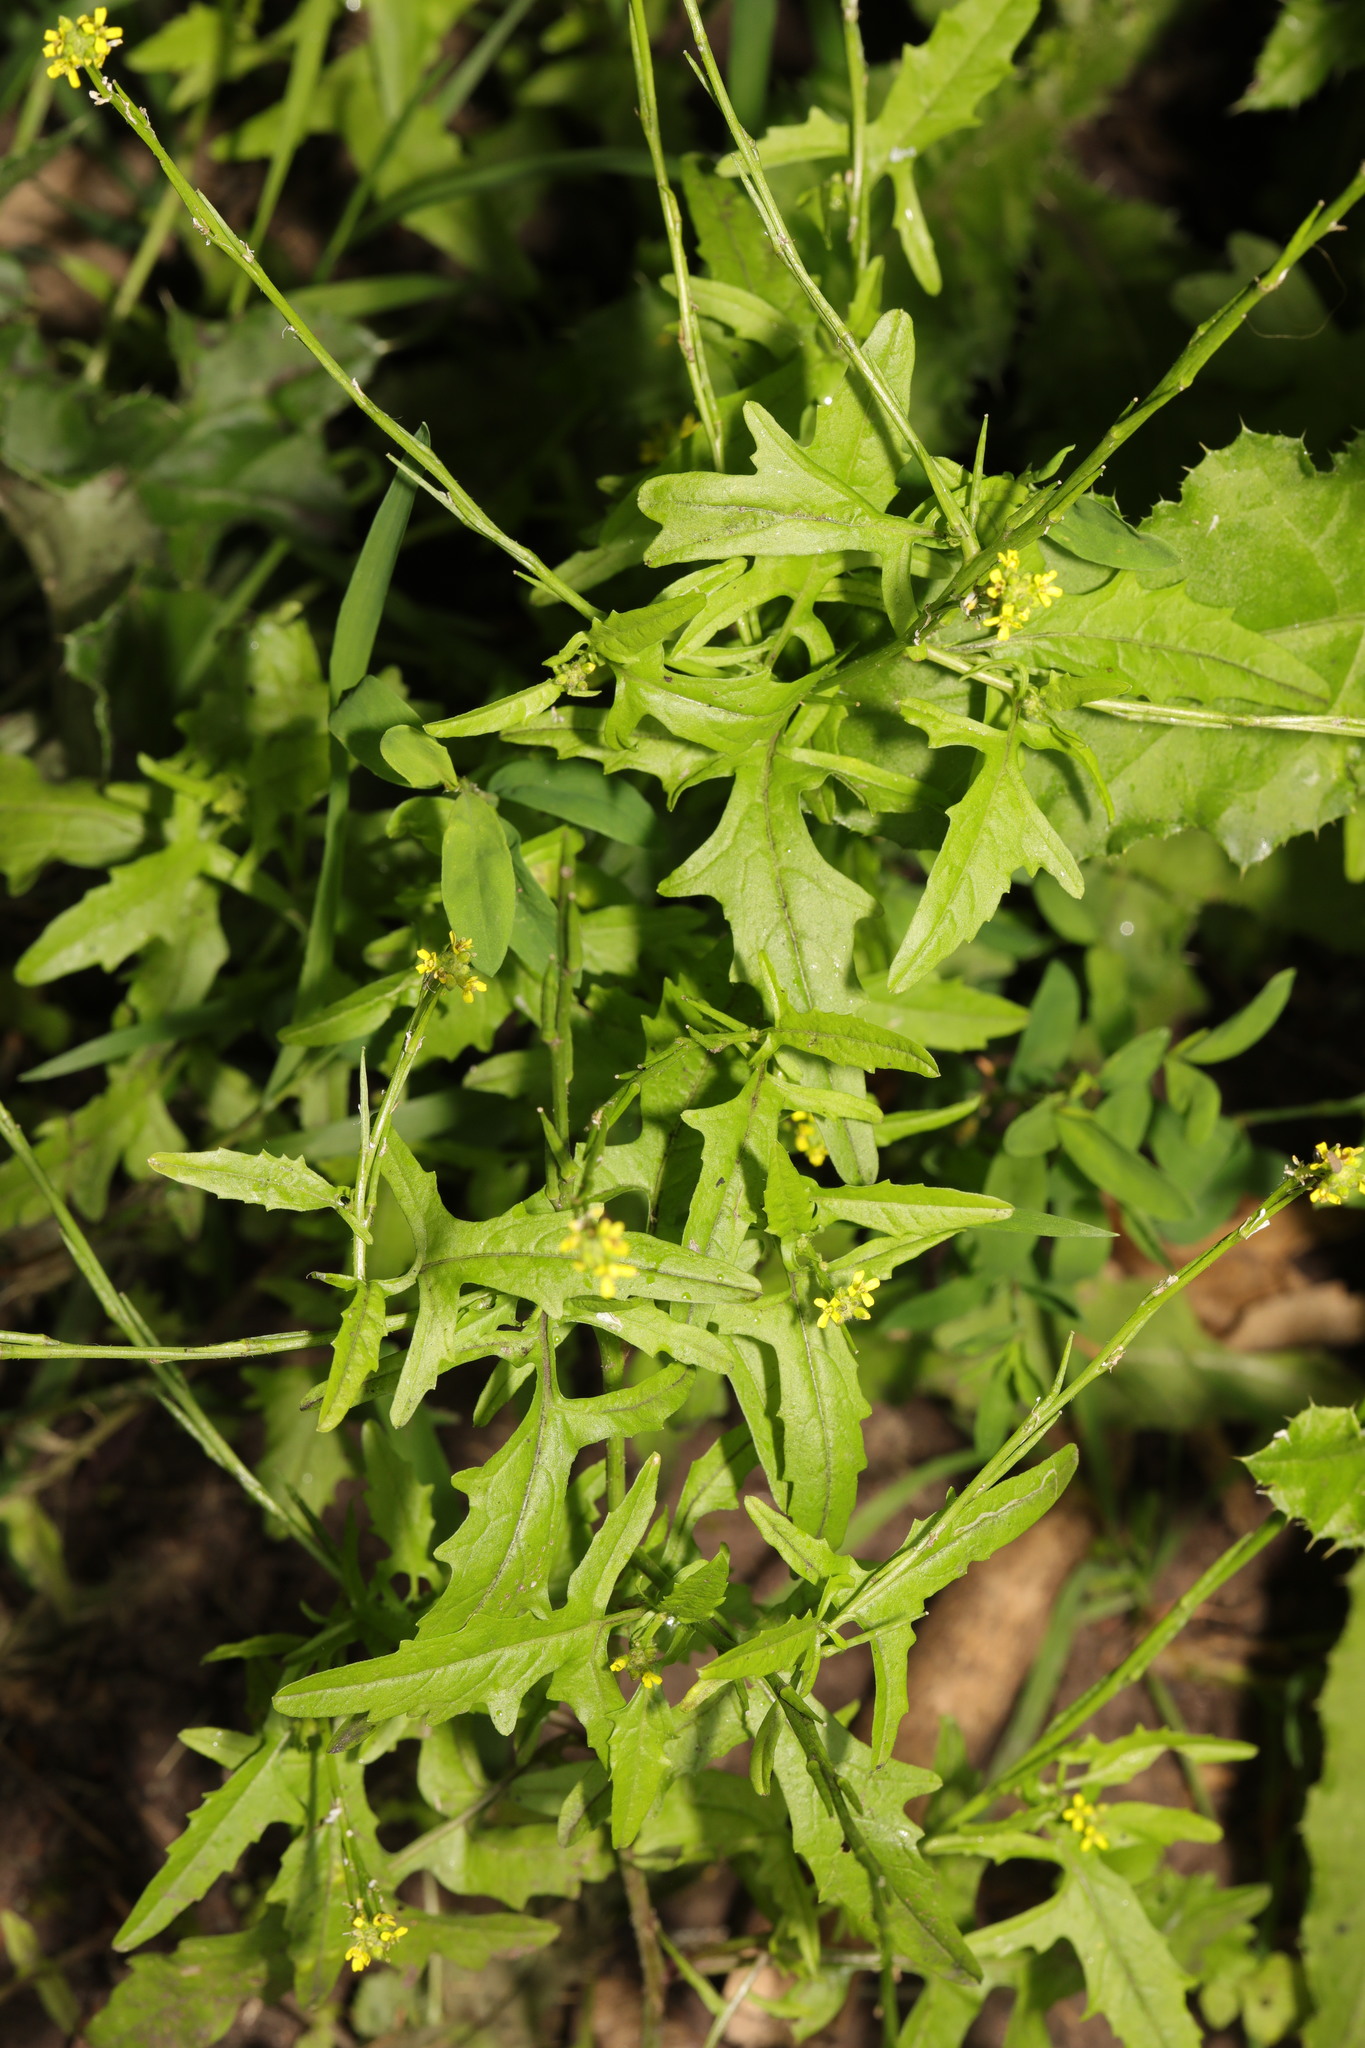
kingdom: Plantae
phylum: Tracheophyta
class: Magnoliopsida
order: Brassicales
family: Brassicaceae
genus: Sisymbrium
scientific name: Sisymbrium officinale
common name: Hedge mustard
